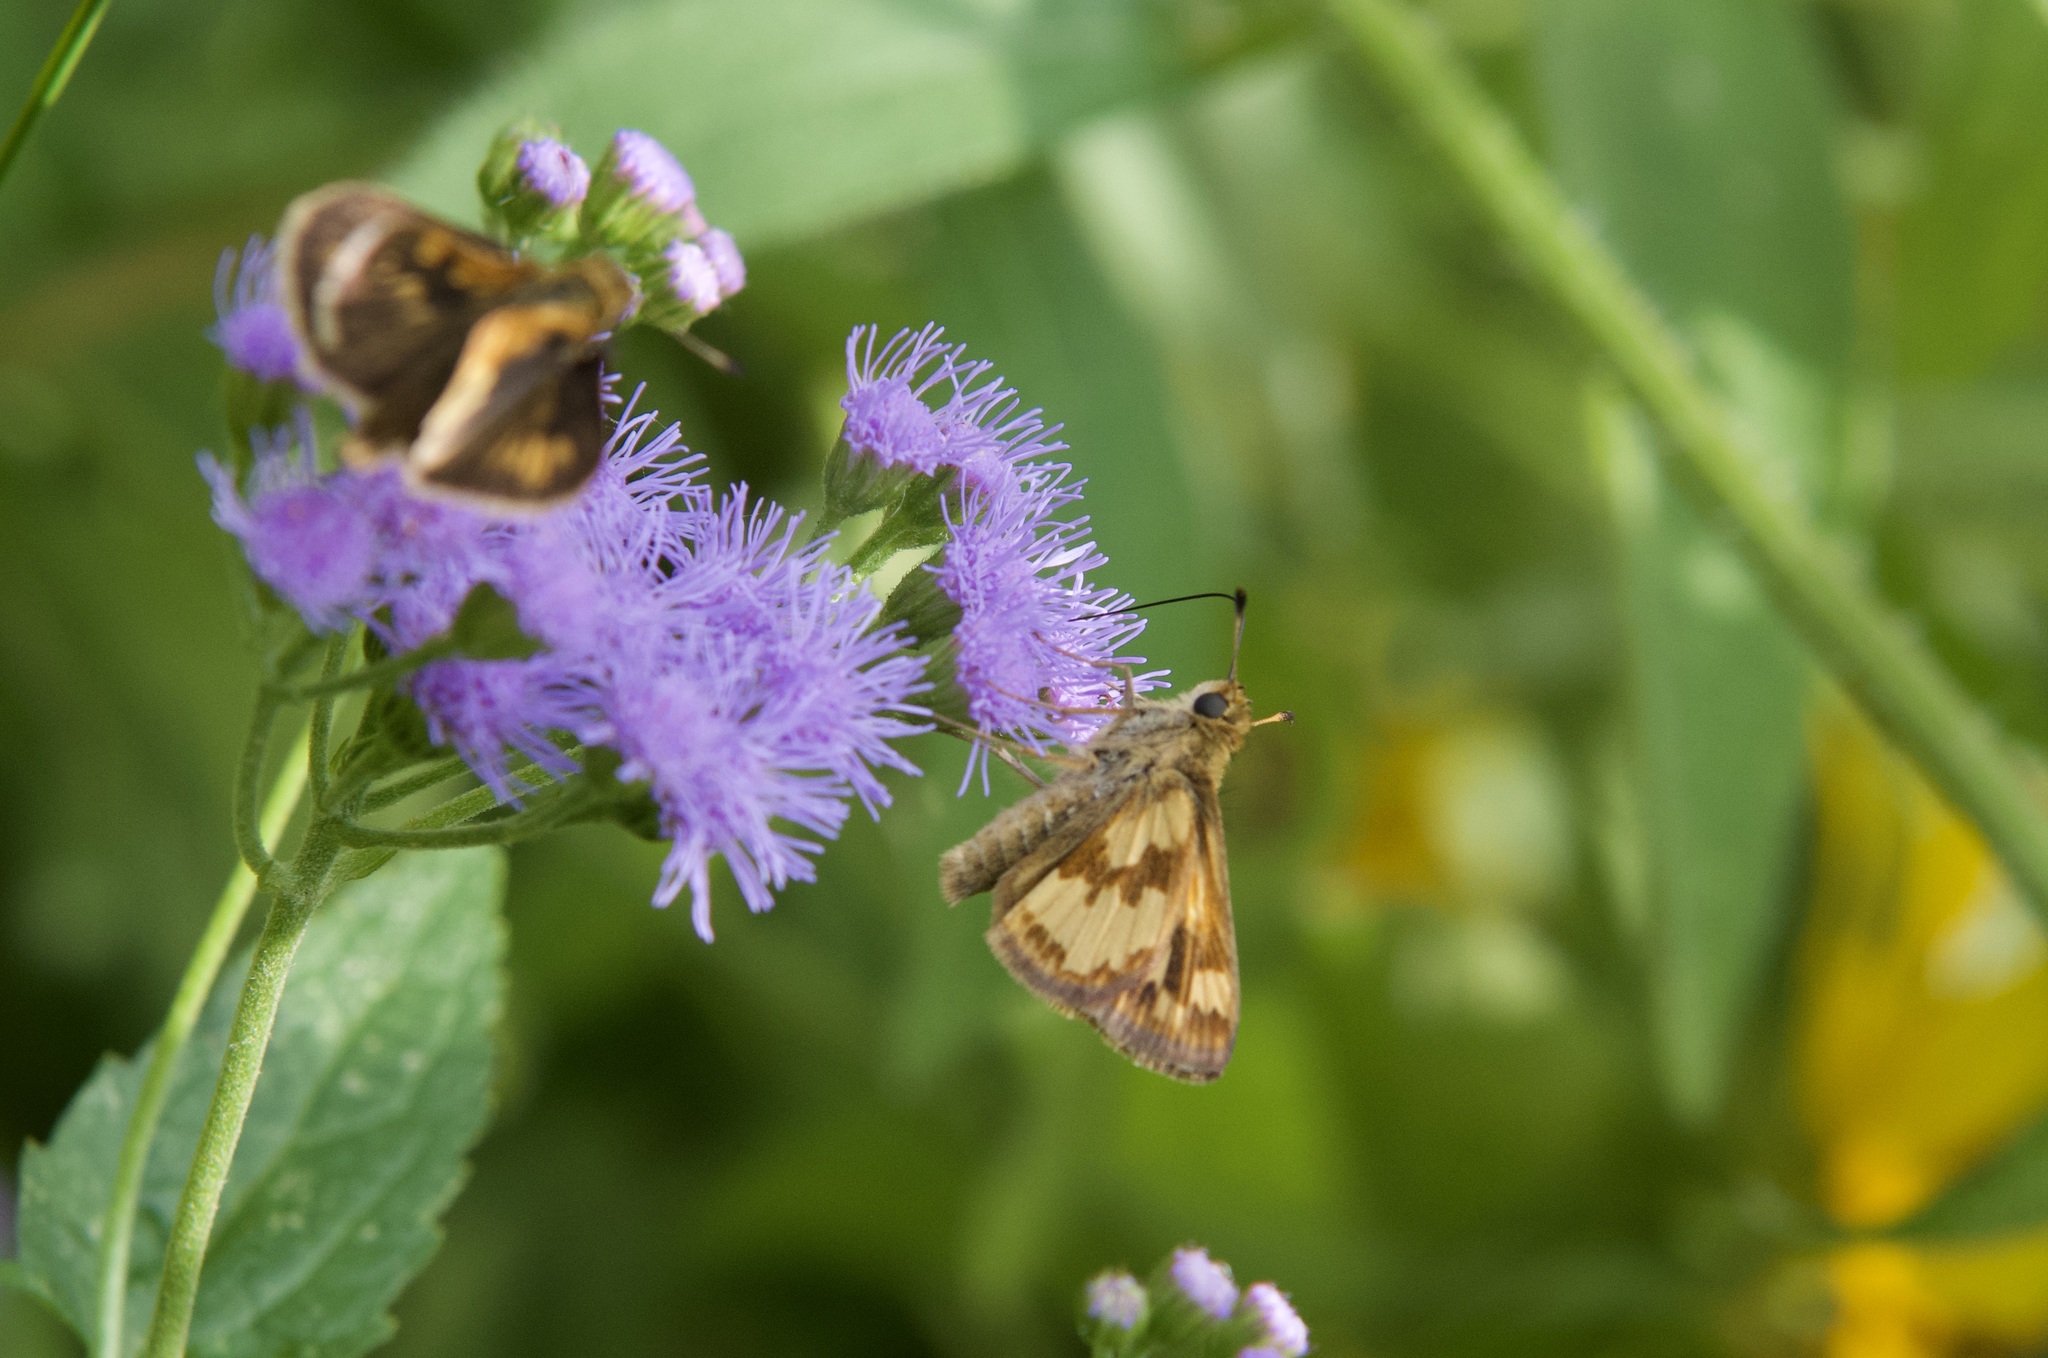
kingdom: Animalia
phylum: Arthropoda
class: Insecta
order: Lepidoptera
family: Hesperiidae
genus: Polites
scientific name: Polites coras
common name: Peck's skipper
